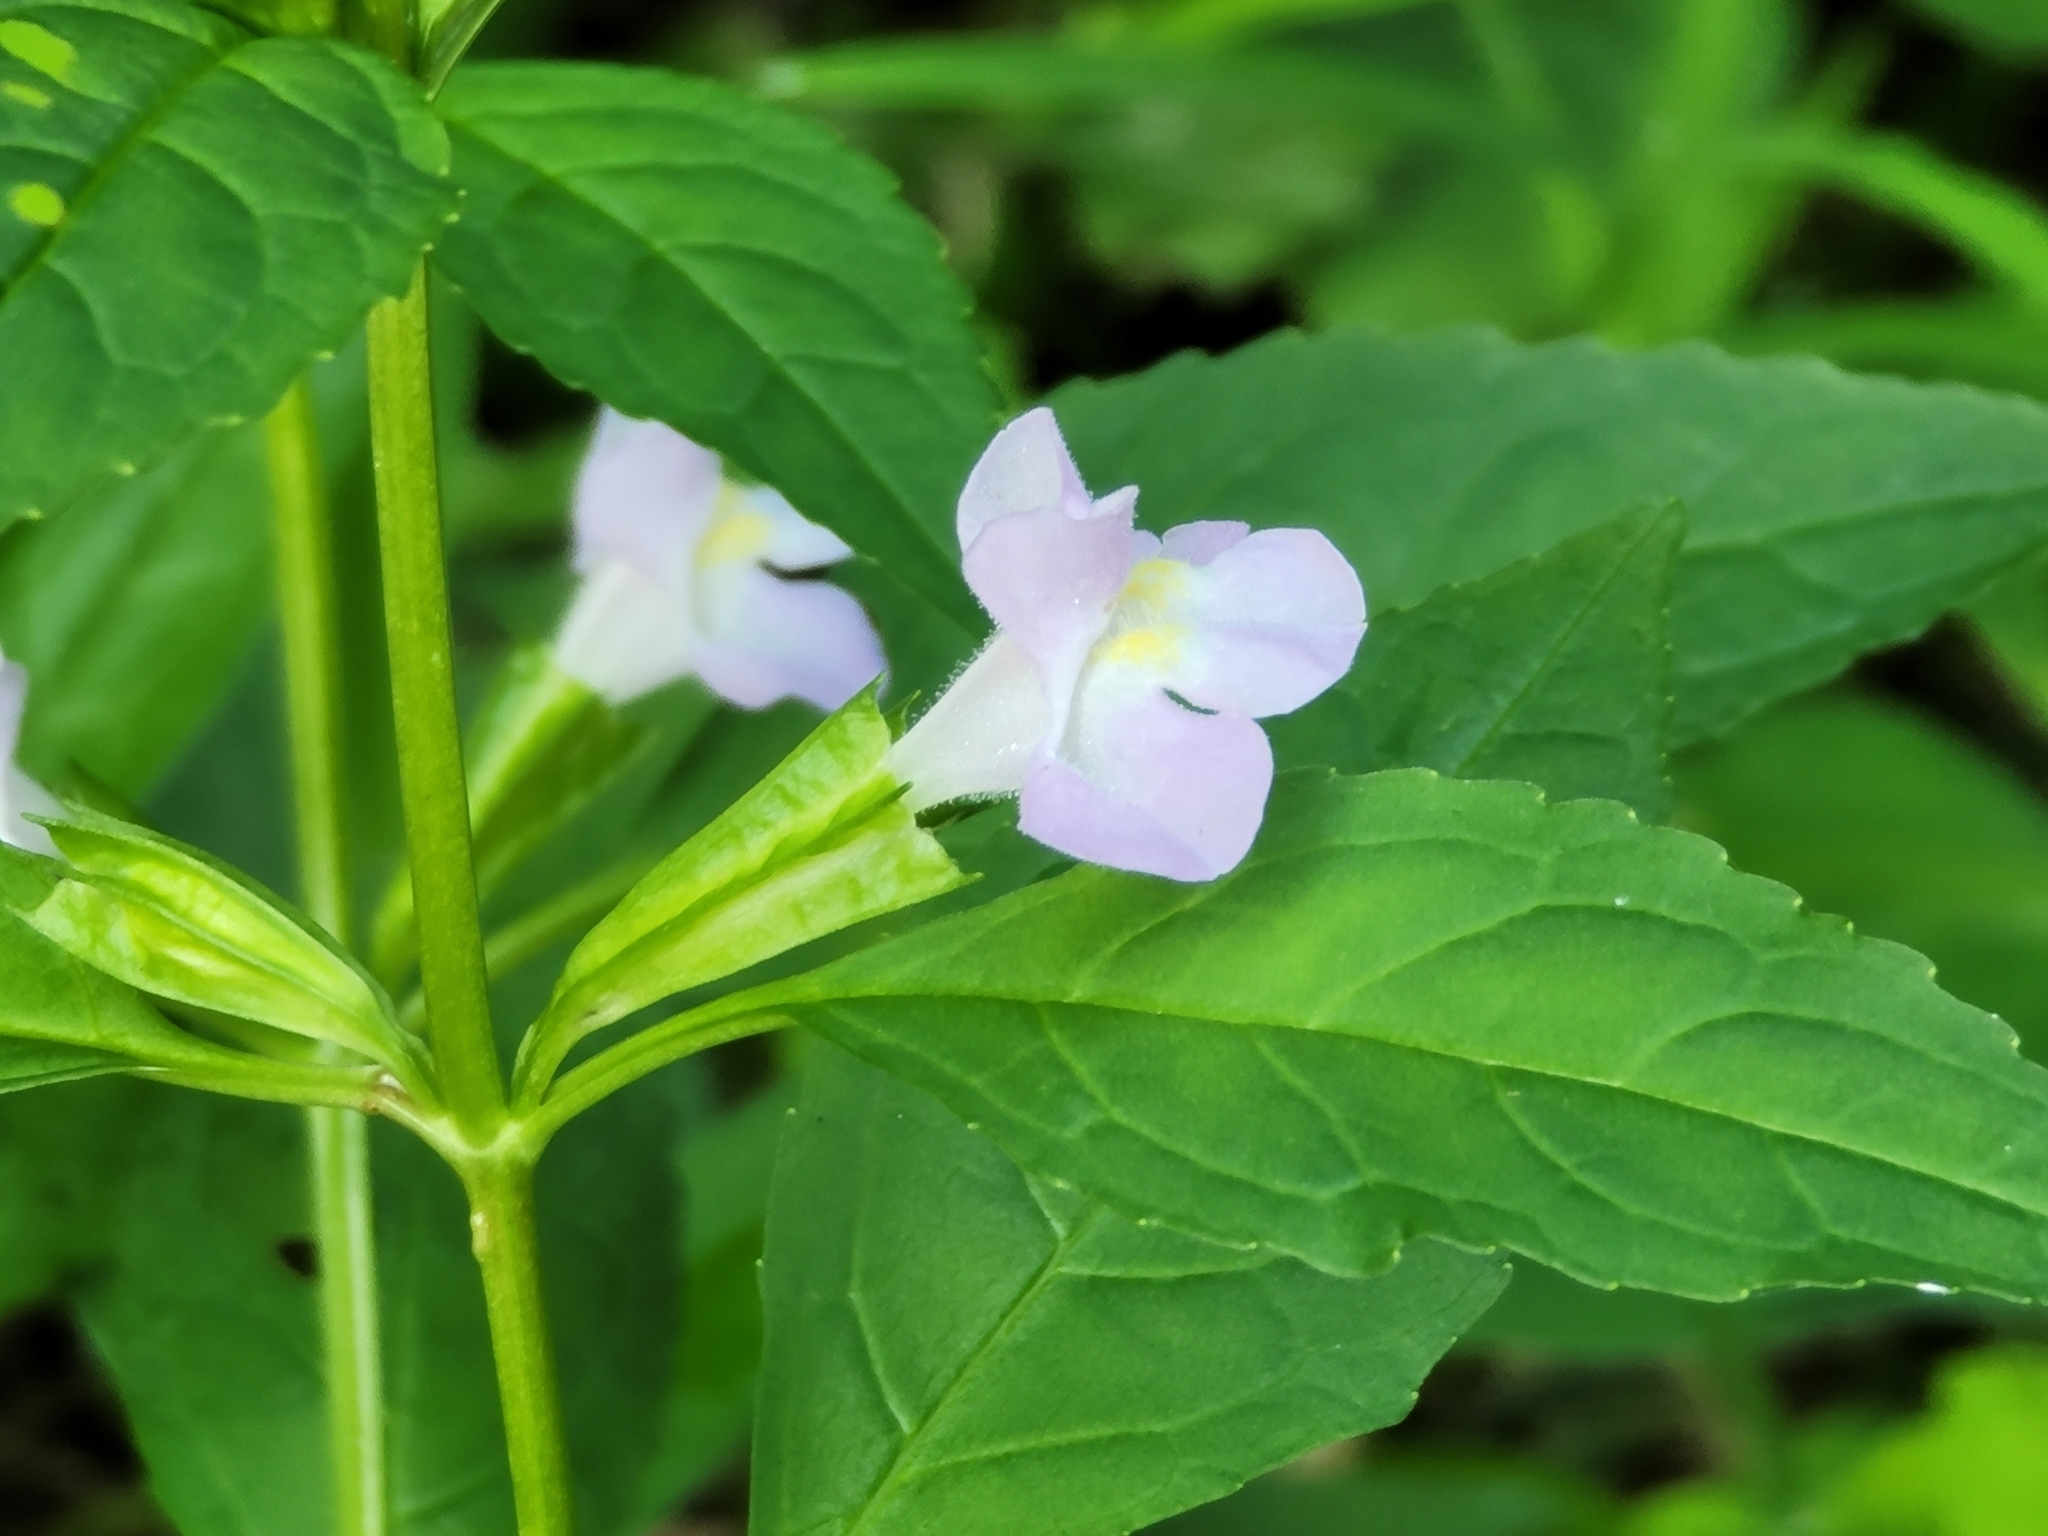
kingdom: Plantae
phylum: Tracheophyta
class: Magnoliopsida
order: Lamiales
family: Phrymaceae
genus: Mimulus
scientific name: Mimulus alatus
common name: Sharp-wing monkey-flower
